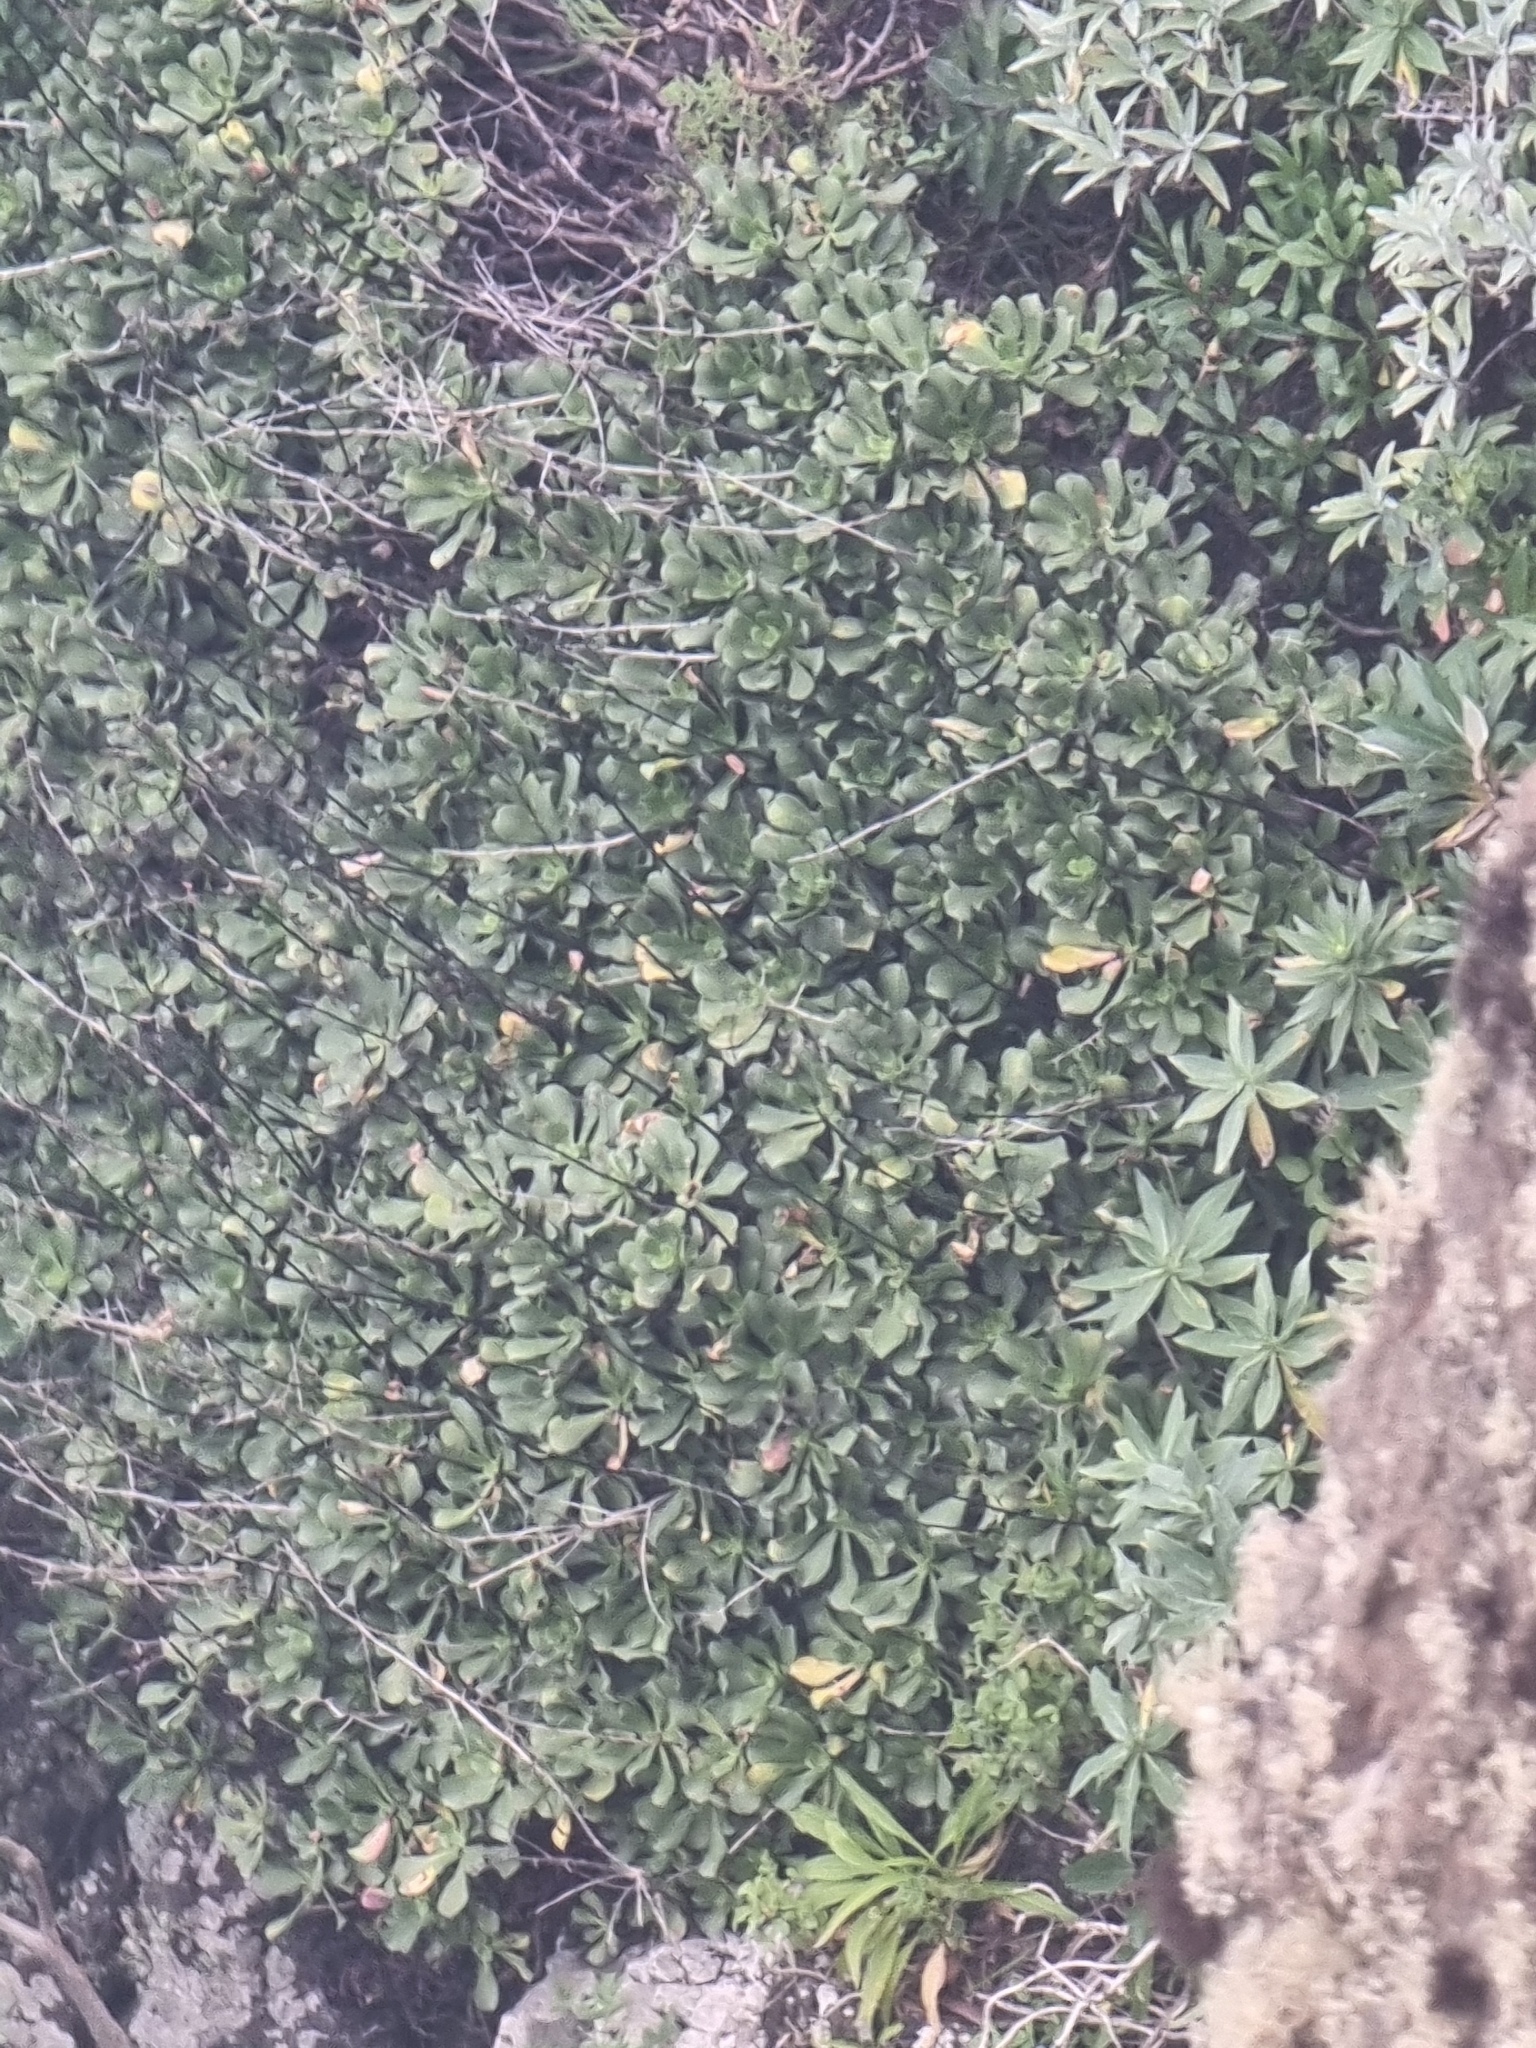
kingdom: Plantae
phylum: Tracheophyta
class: Magnoliopsida
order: Saxifragales
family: Crassulaceae
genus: Aeonium
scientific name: Aeonium glutinosum
